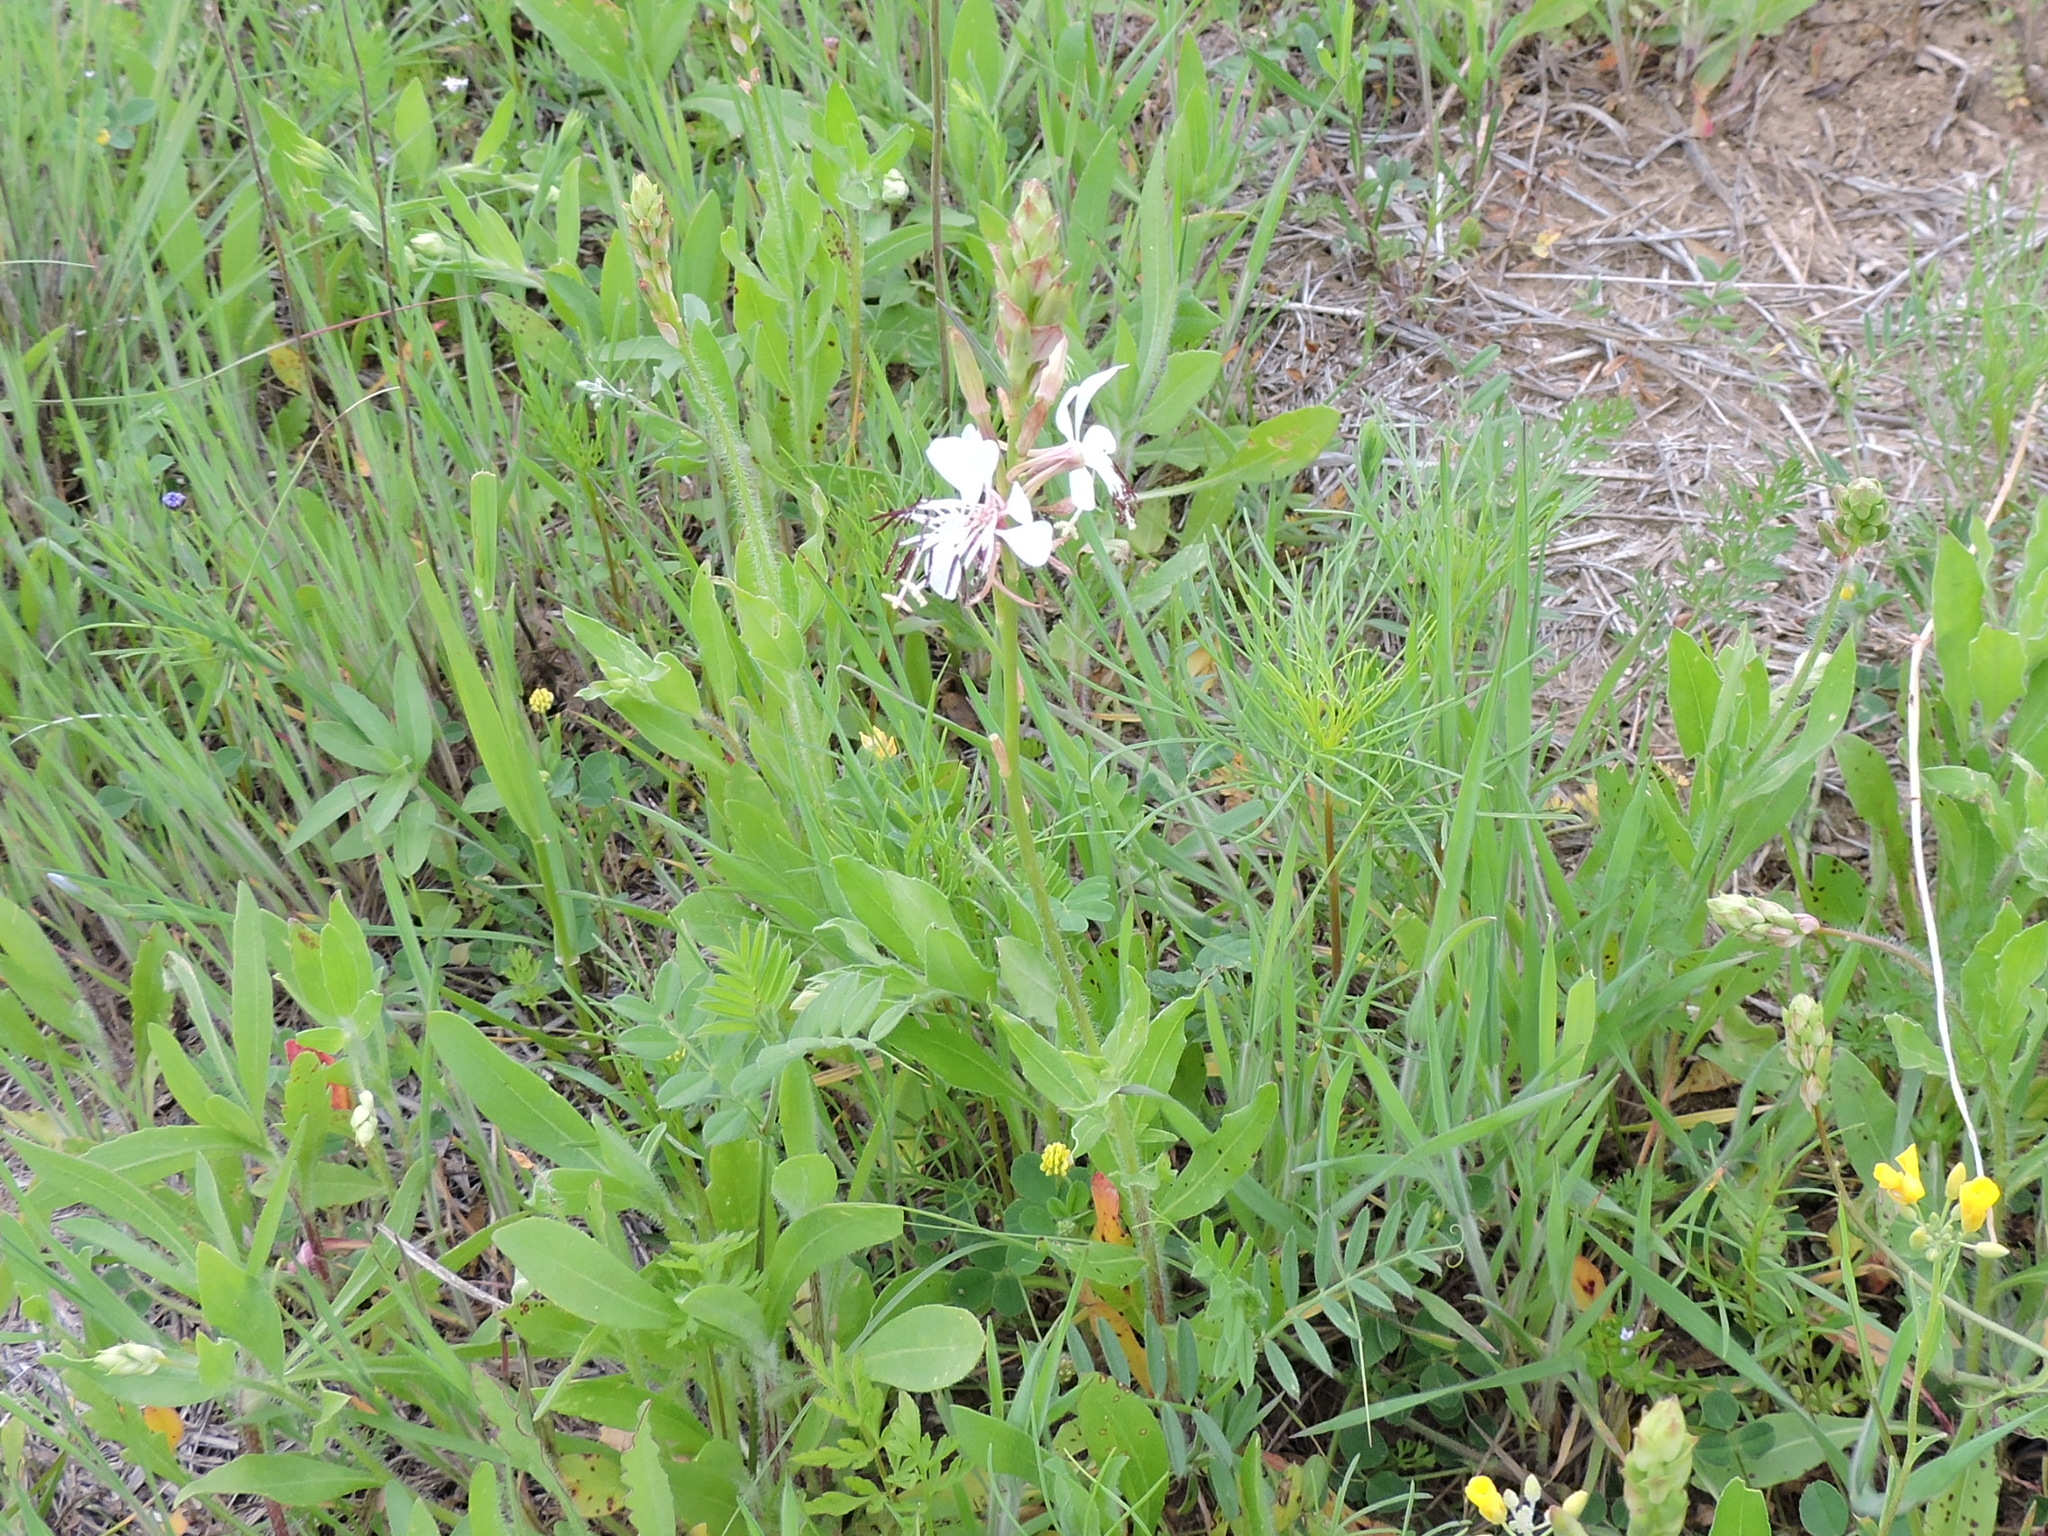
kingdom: Plantae
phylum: Tracheophyta
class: Magnoliopsida
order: Myrtales
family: Onagraceae
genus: Oenothera
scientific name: Oenothera suffulta
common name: Kisses
